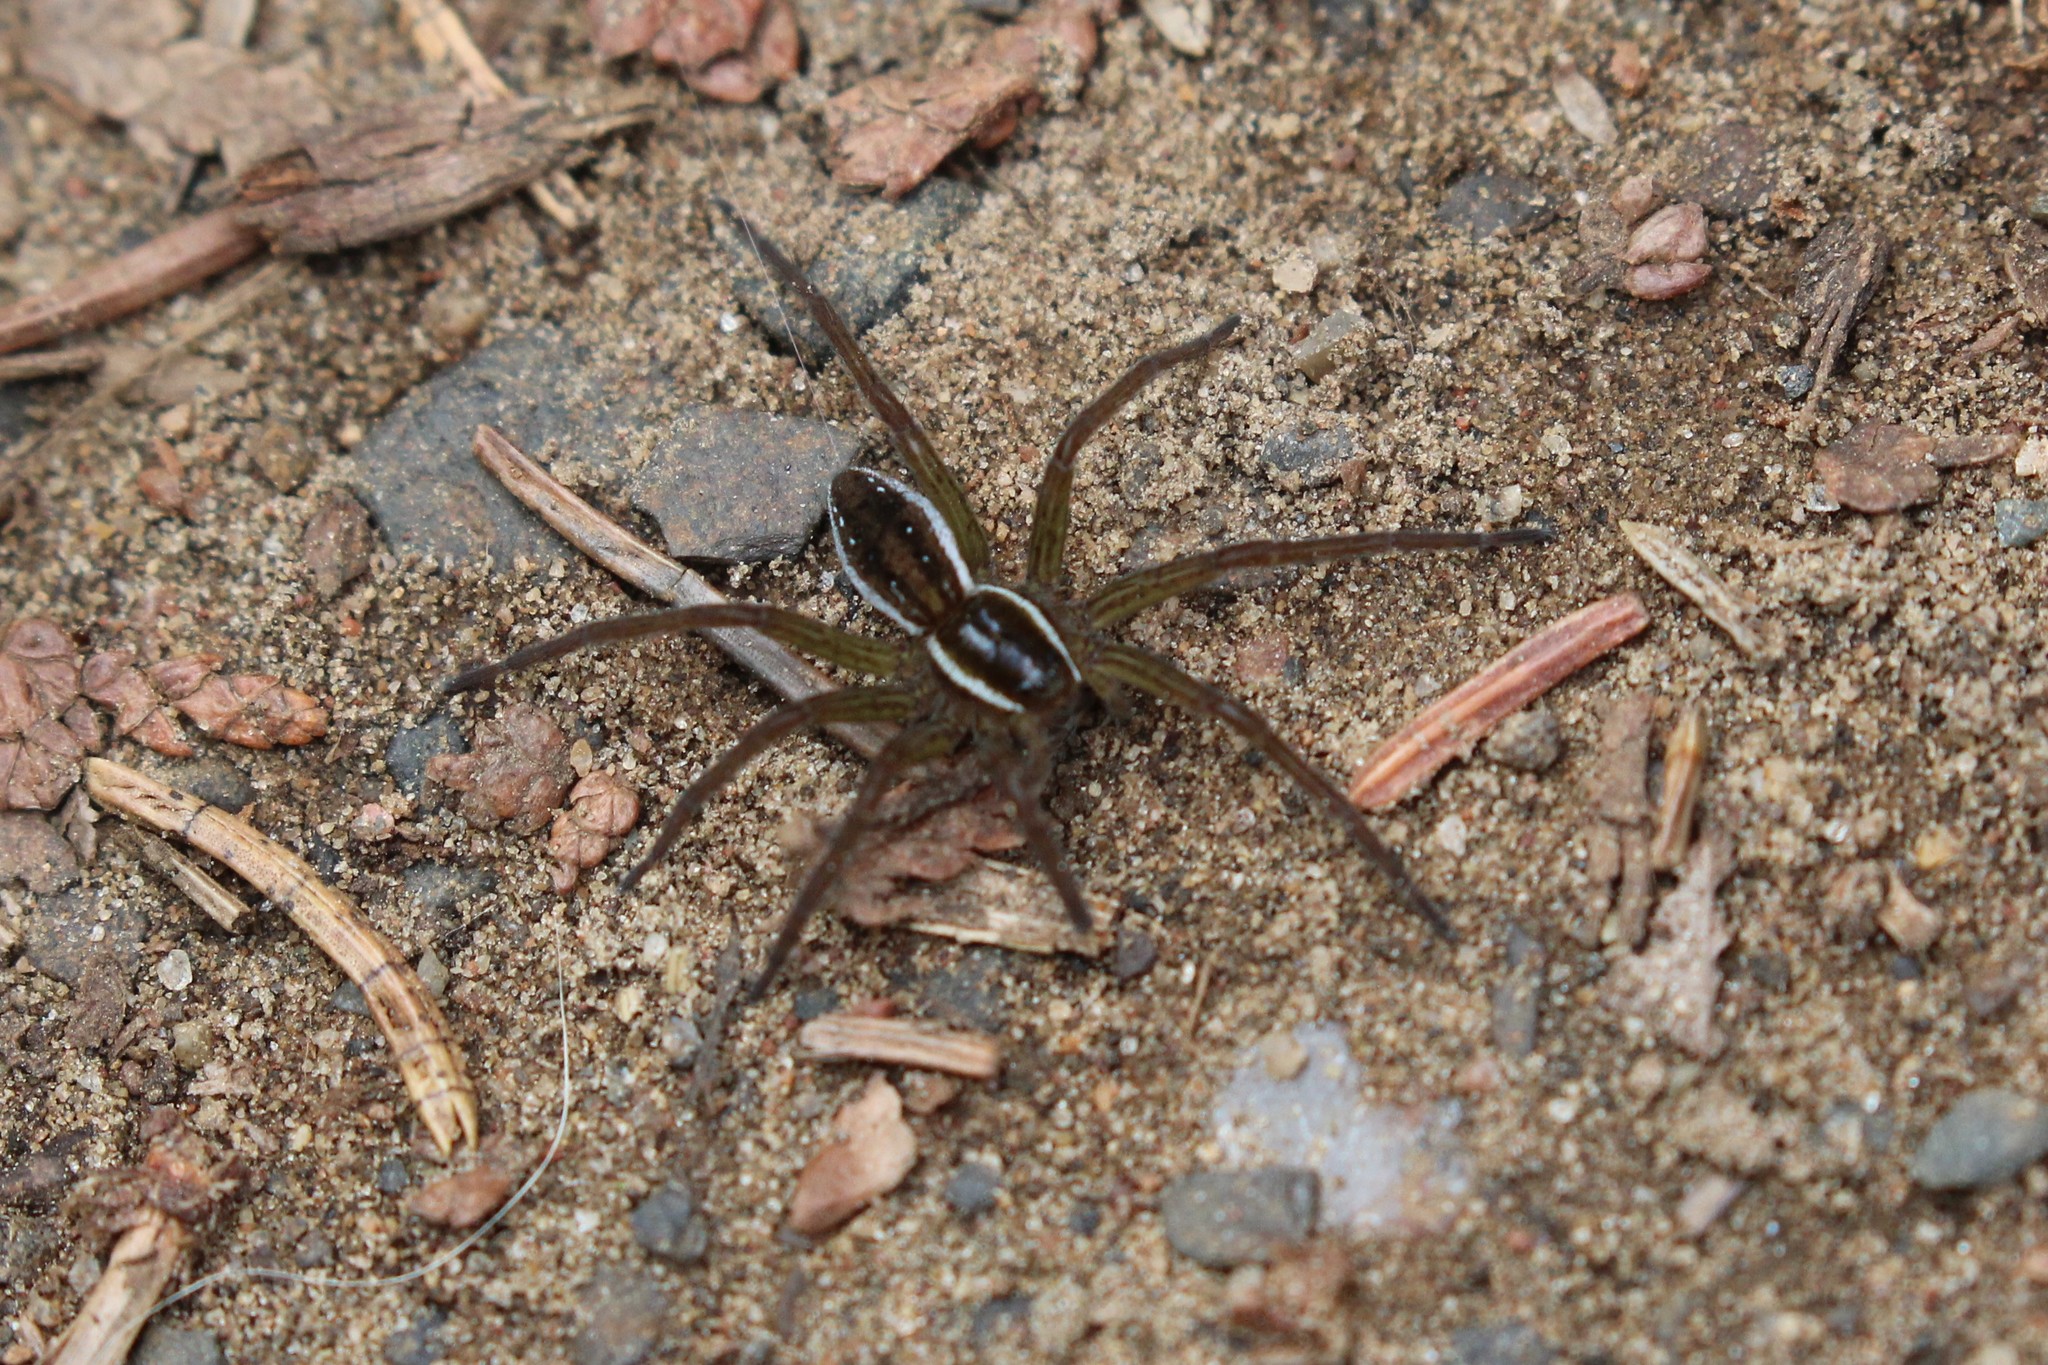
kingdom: Animalia
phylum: Arthropoda
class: Arachnida
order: Araneae
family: Pisauridae
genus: Dolomedes
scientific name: Dolomedes triton
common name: Six-spotted fishing spider
